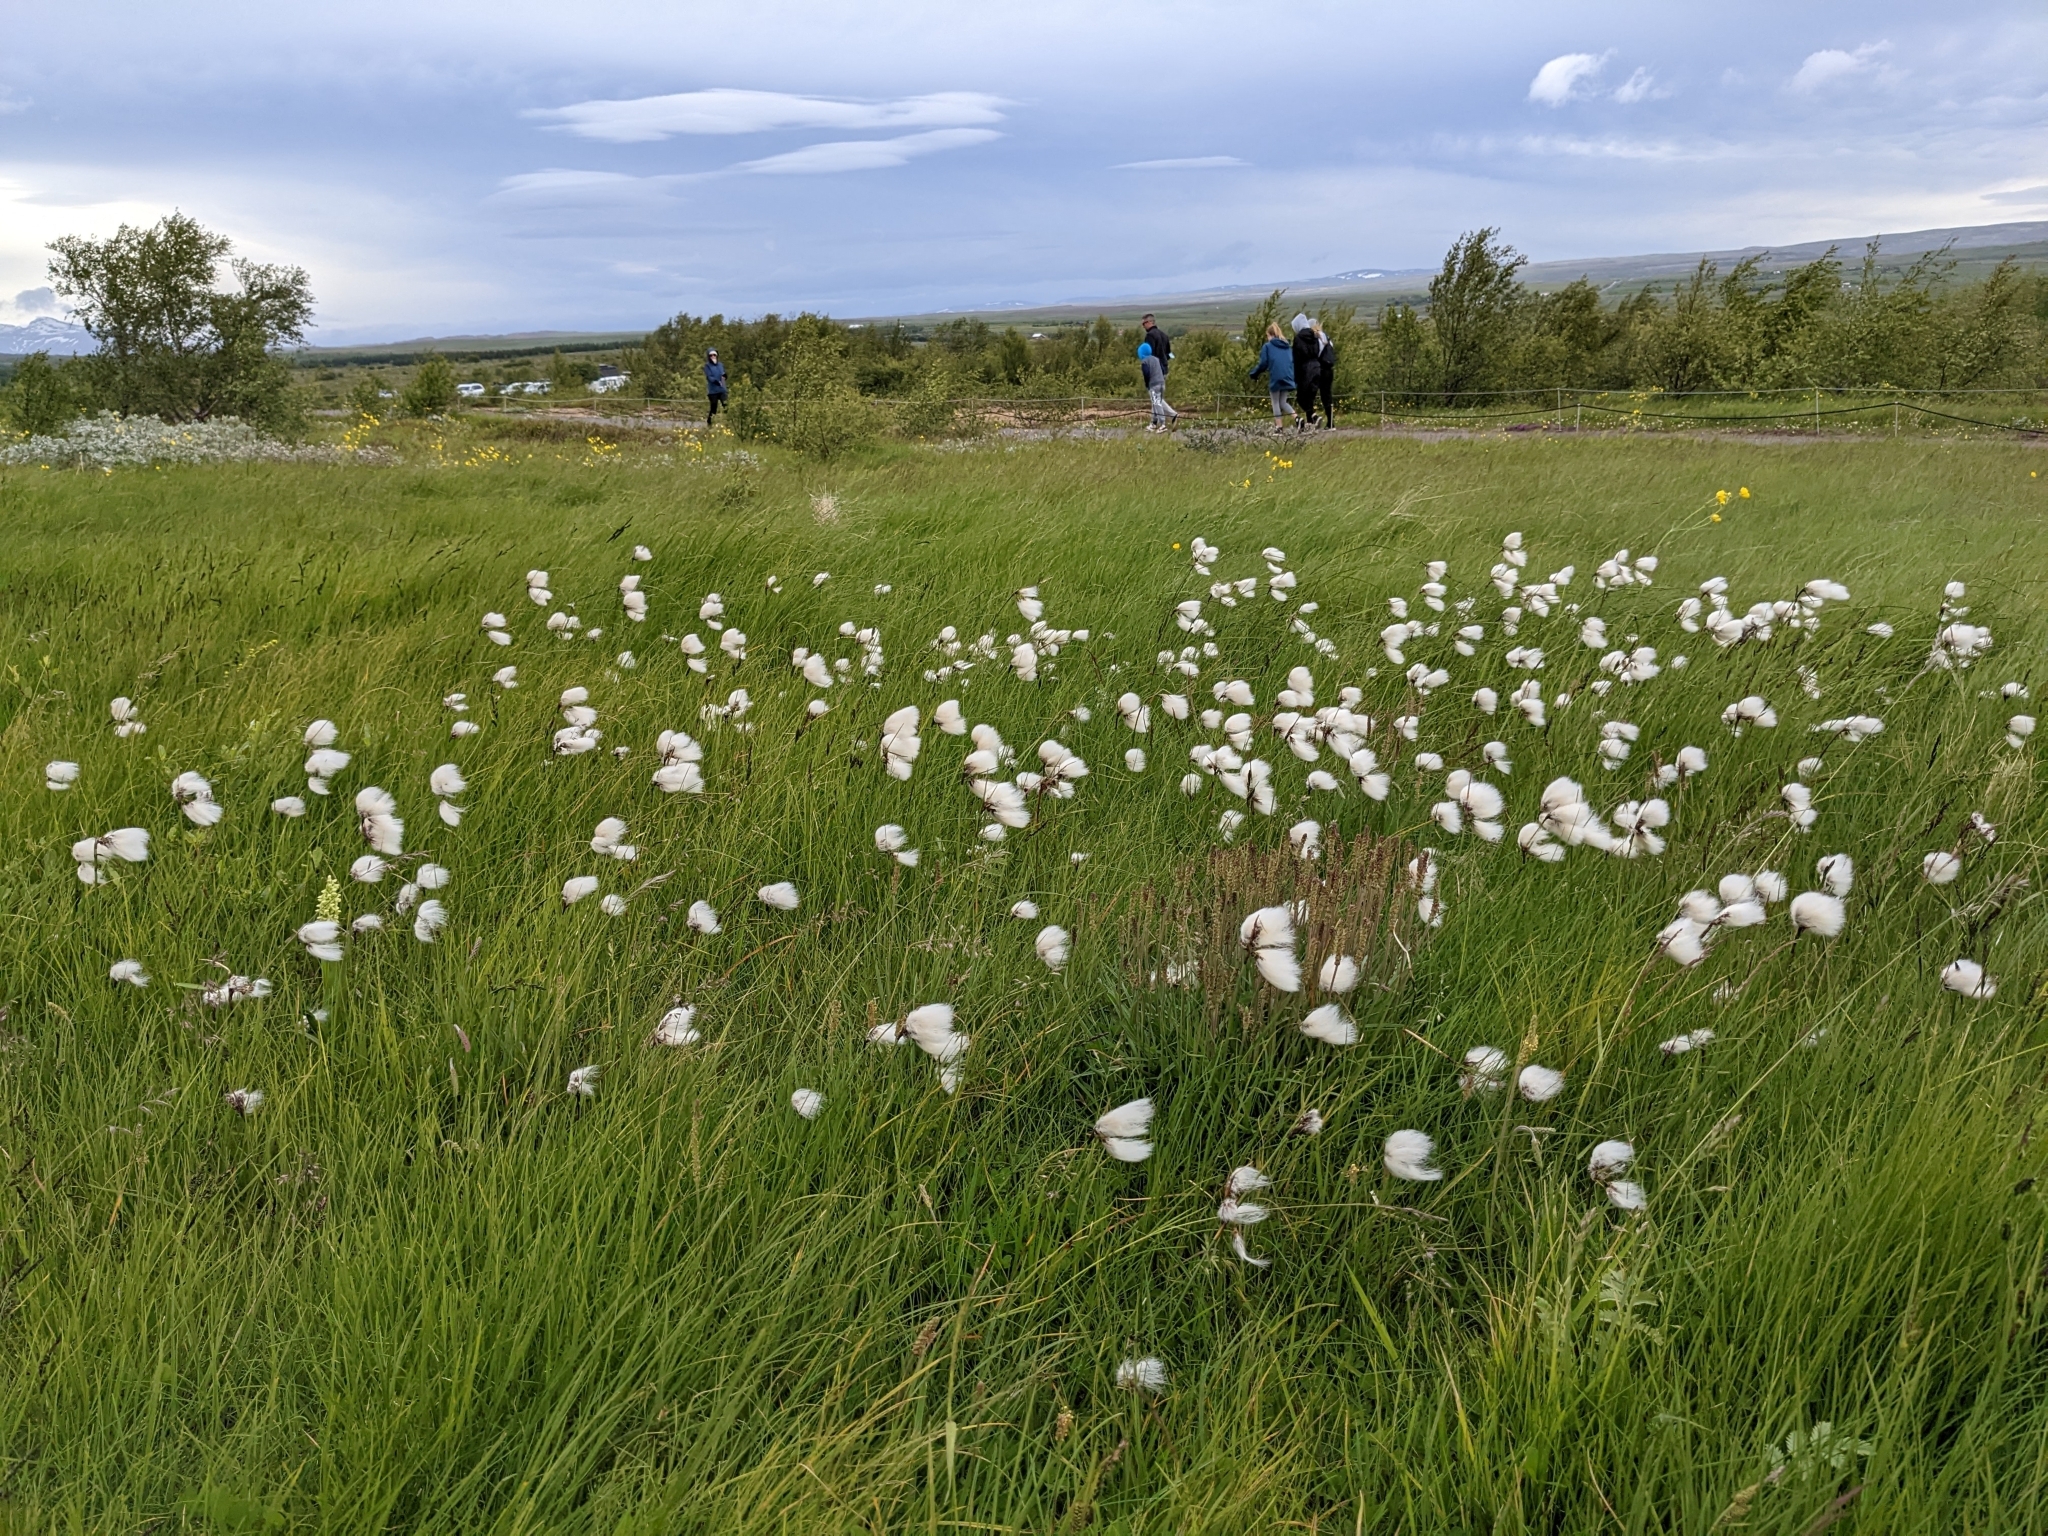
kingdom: Plantae
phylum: Tracheophyta
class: Liliopsida
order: Poales
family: Cyperaceae
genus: Eriophorum
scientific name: Eriophorum angustifolium
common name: Common cottongrass
